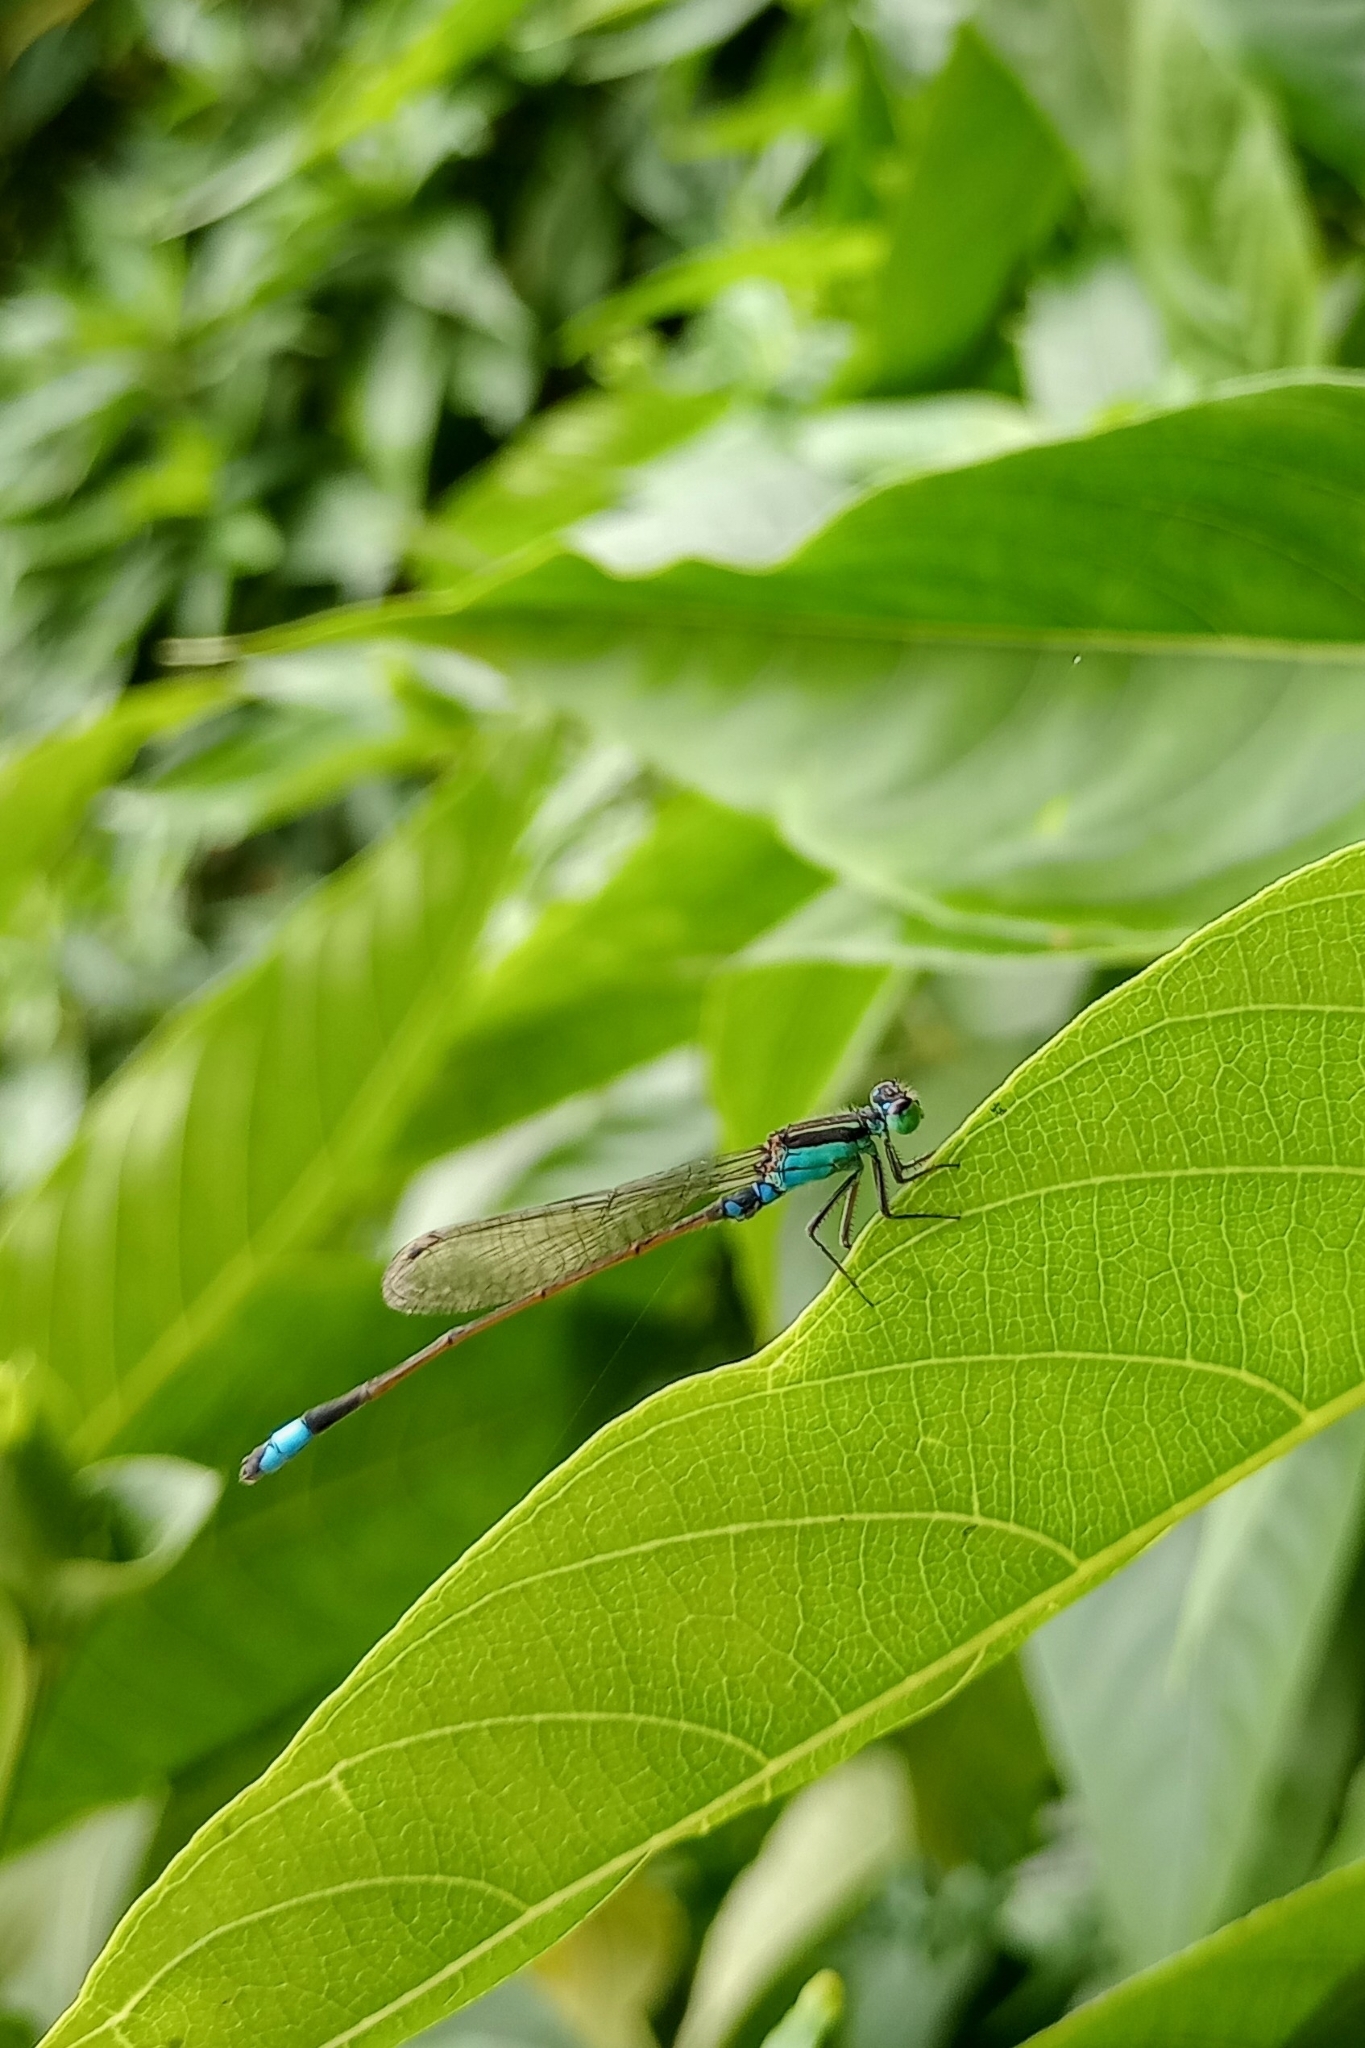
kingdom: Animalia
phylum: Arthropoda
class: Insecta
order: Odonata
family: Coenagrionidae
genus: Ischnura
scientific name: Ischnura senegalensis
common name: Tropical bluetail
